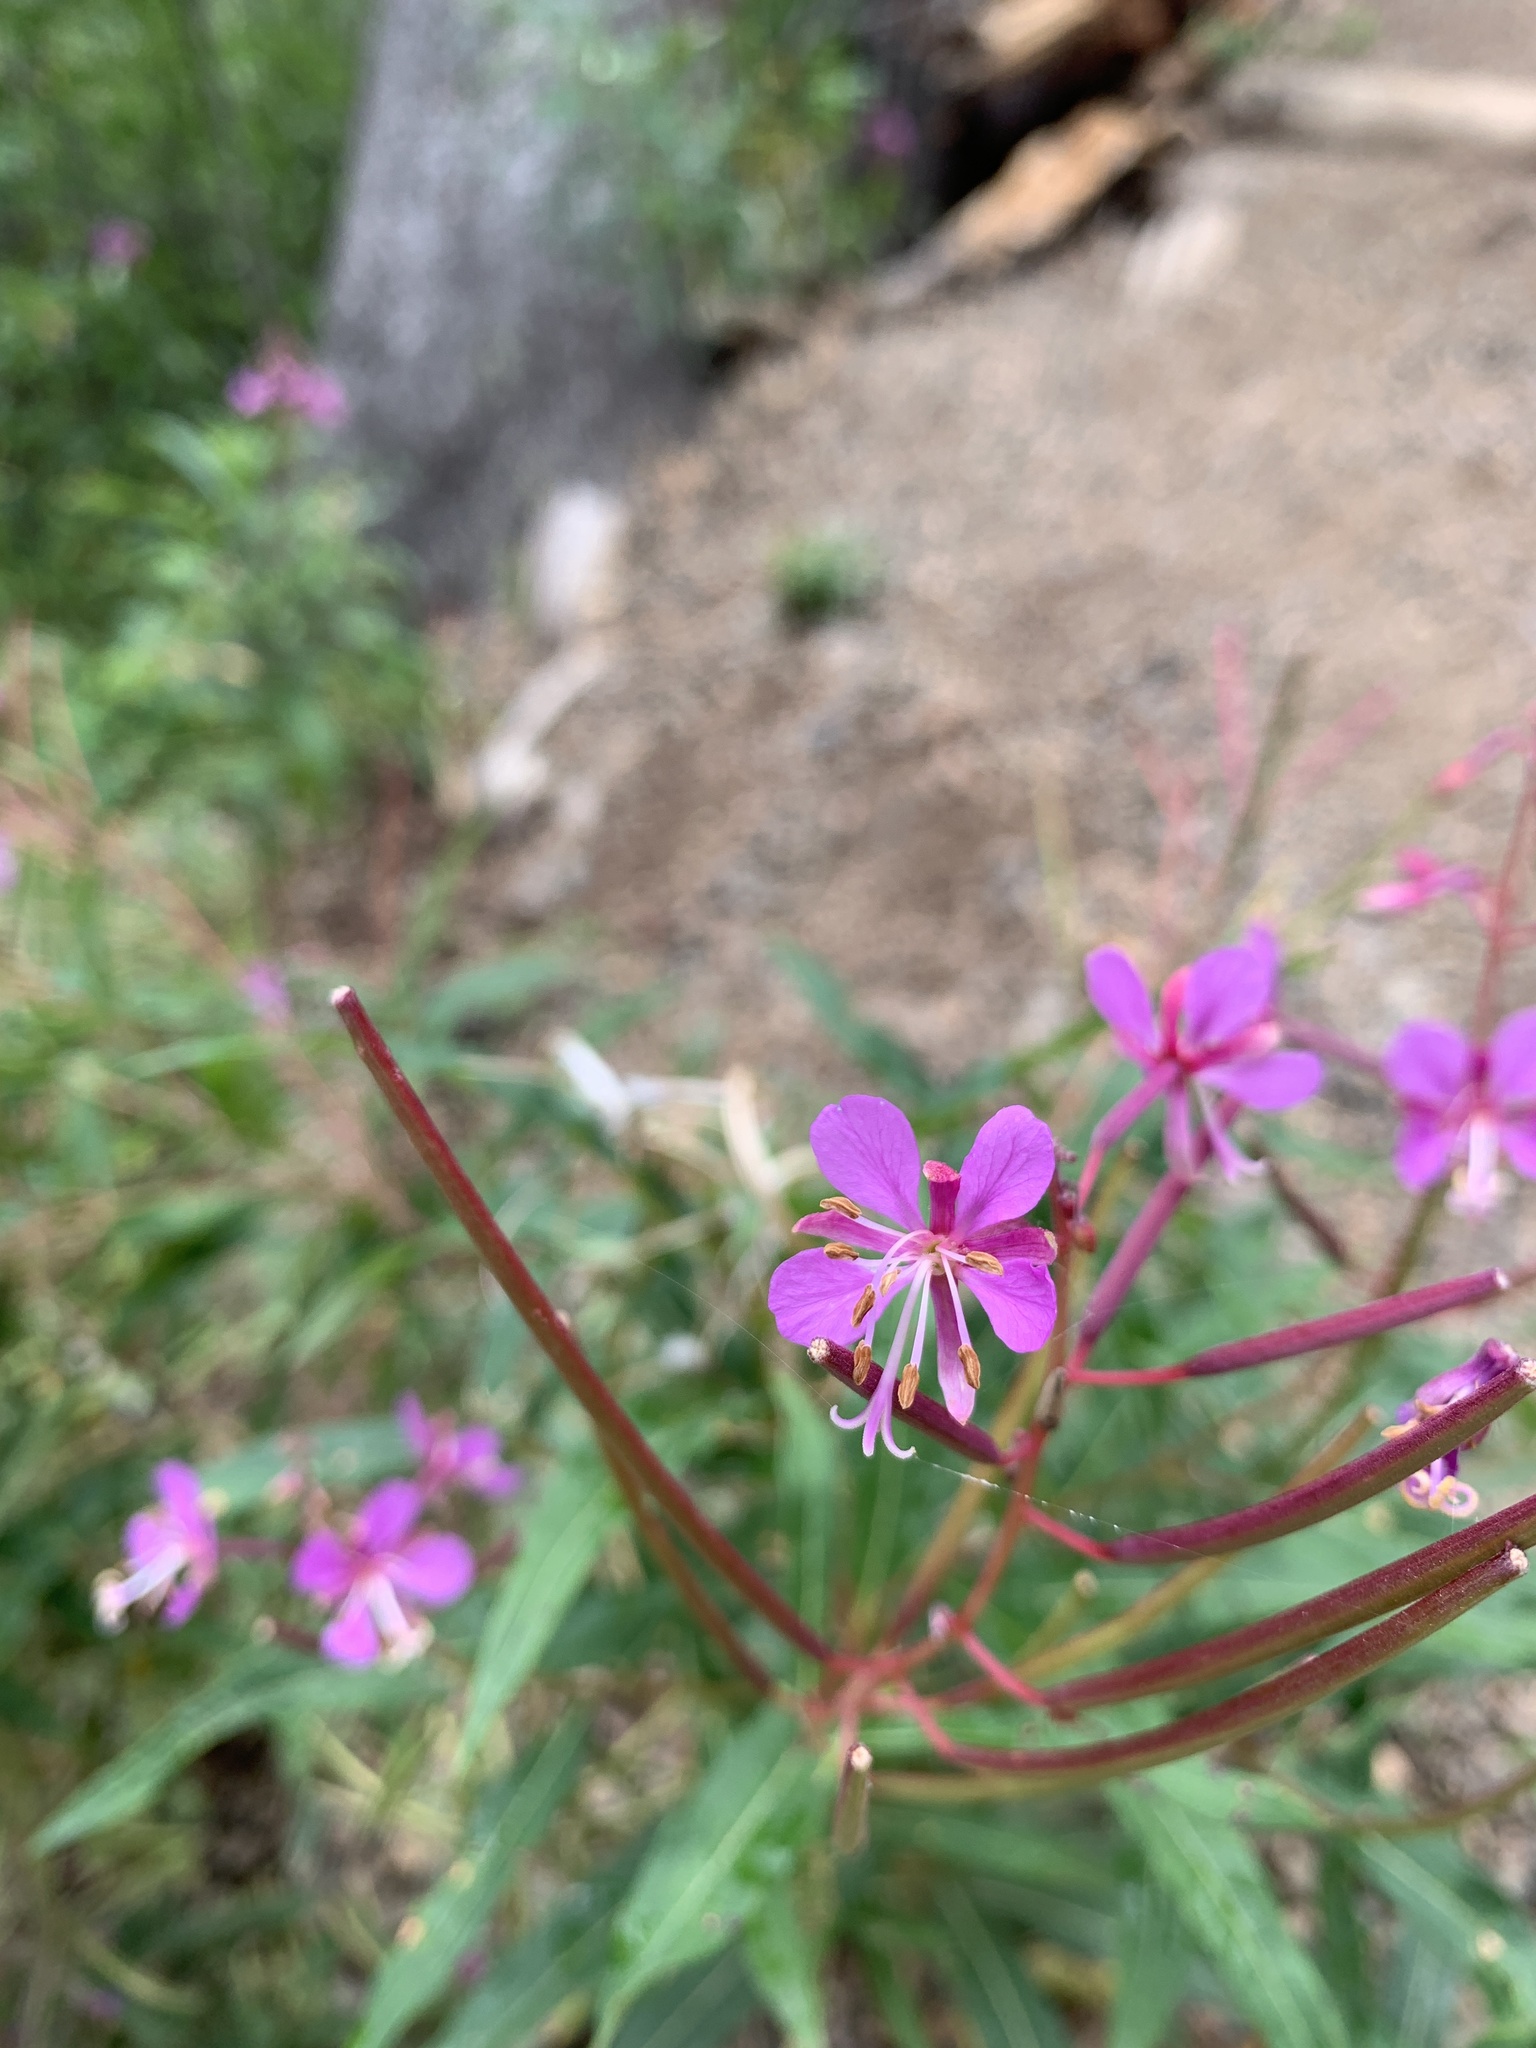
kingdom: Plantae
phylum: Tracheophyta
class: Magnoliopsida
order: Myrtales
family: Onagraceae
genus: Chamaenerion
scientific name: Chamaenerion angustifolium
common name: Fireweed
